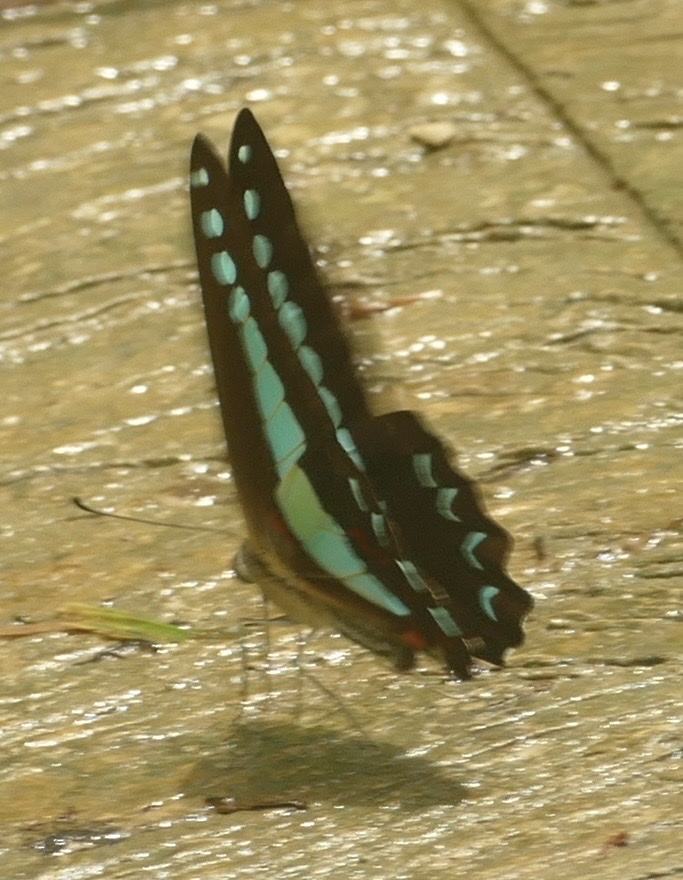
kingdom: Animalia
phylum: Arthropoda
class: Insecta
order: Lepidoptera
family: Papilionidae
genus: Graphium
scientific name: Graphium
